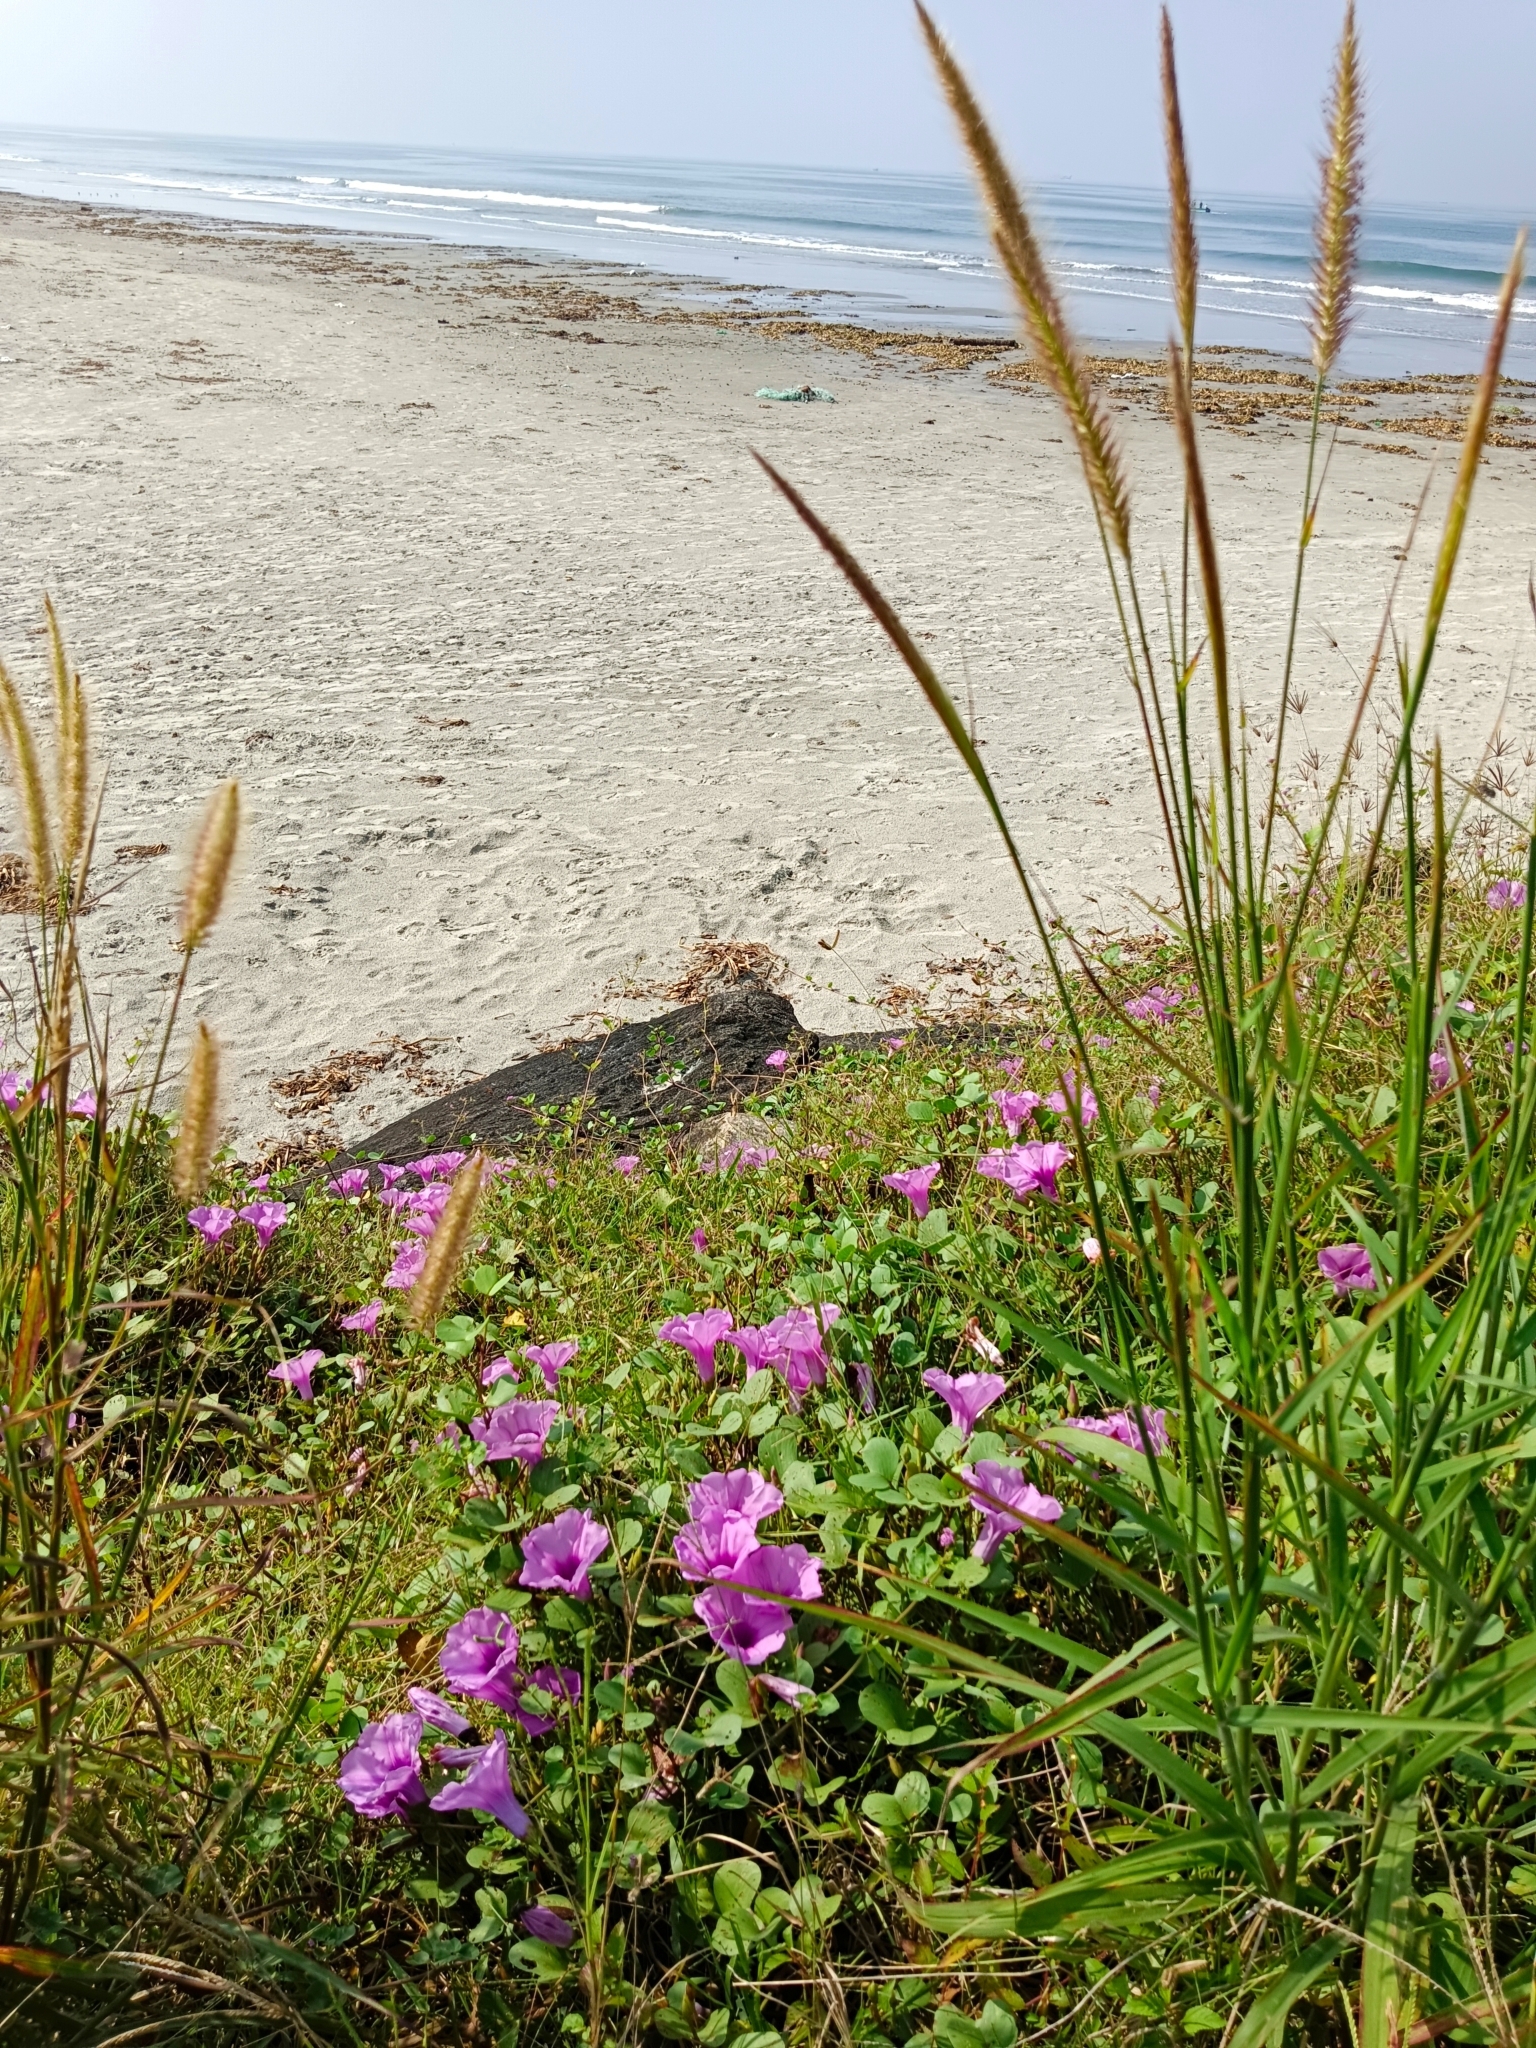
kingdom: Plantae
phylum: Tracheophyta
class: Magnoliopsida
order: Solanales
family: Convolvulaceae
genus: Ipomoea
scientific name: Ipomoea pes-caprae
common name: Beach morning glory
